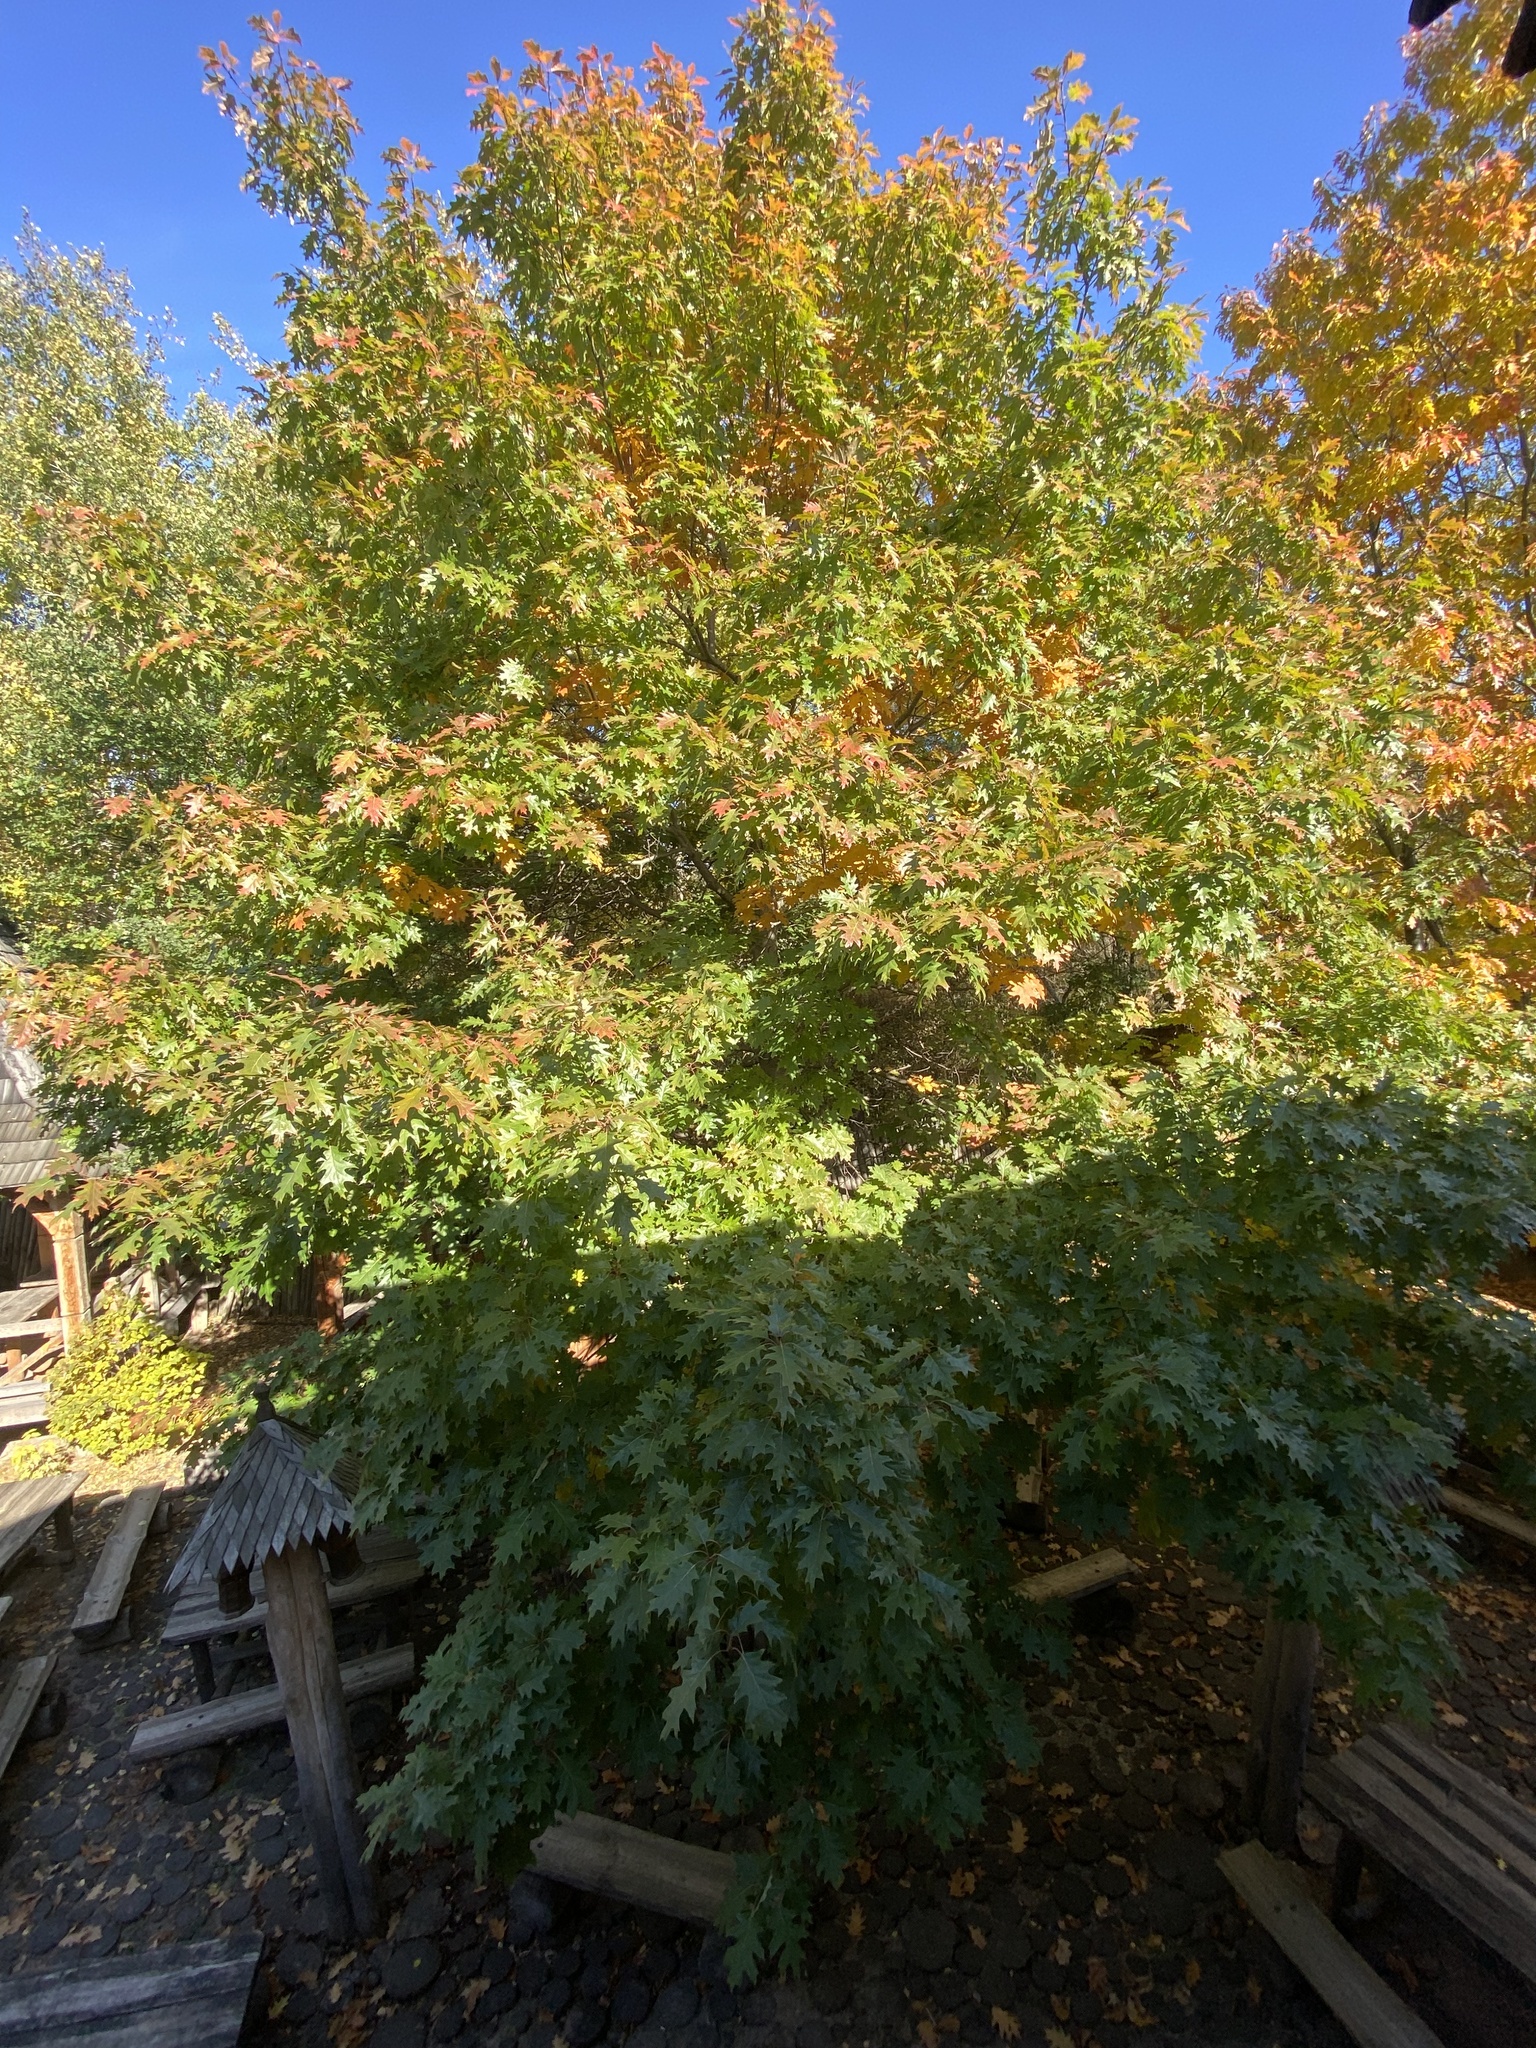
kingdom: Plantae
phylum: Tracheophyta
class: Magnoliopsida
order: Fagales
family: Fagaceae
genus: Quercus
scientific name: Quercus rubra
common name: Red oak
